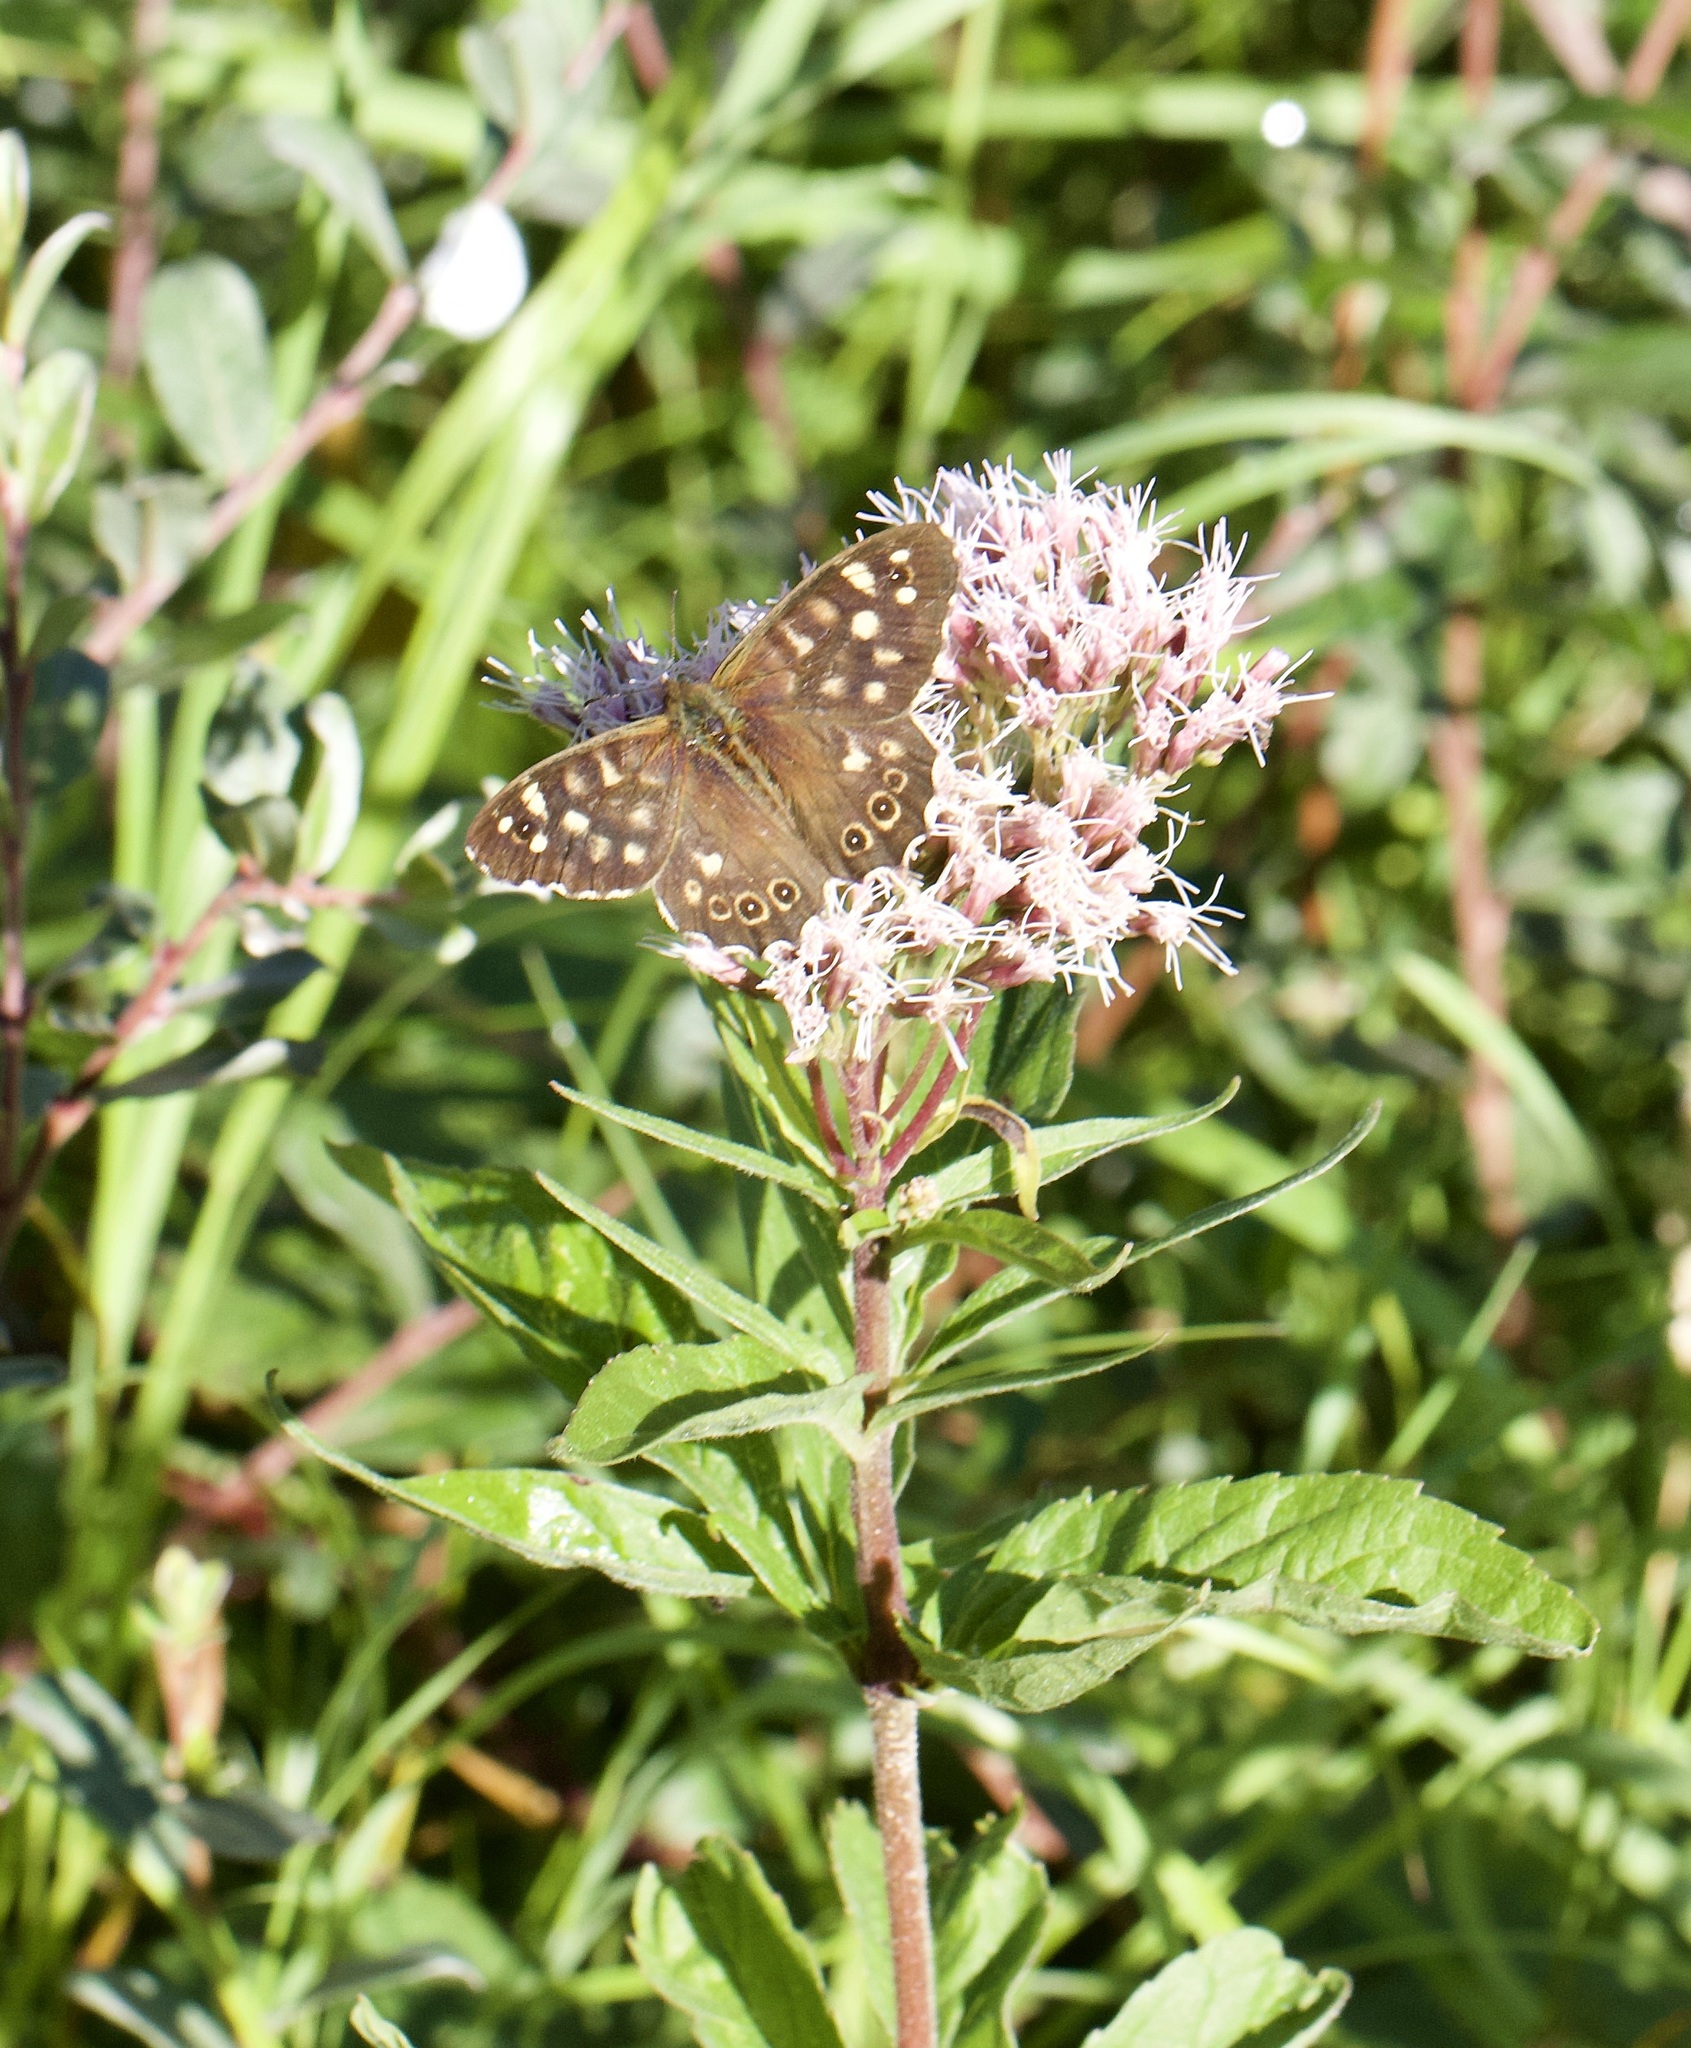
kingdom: Animalia
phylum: Arthropoda
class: Insecta
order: Lepidoptera
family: Nymphalidae
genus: Pararge
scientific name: Pararge aegeria
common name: Speckled wood
